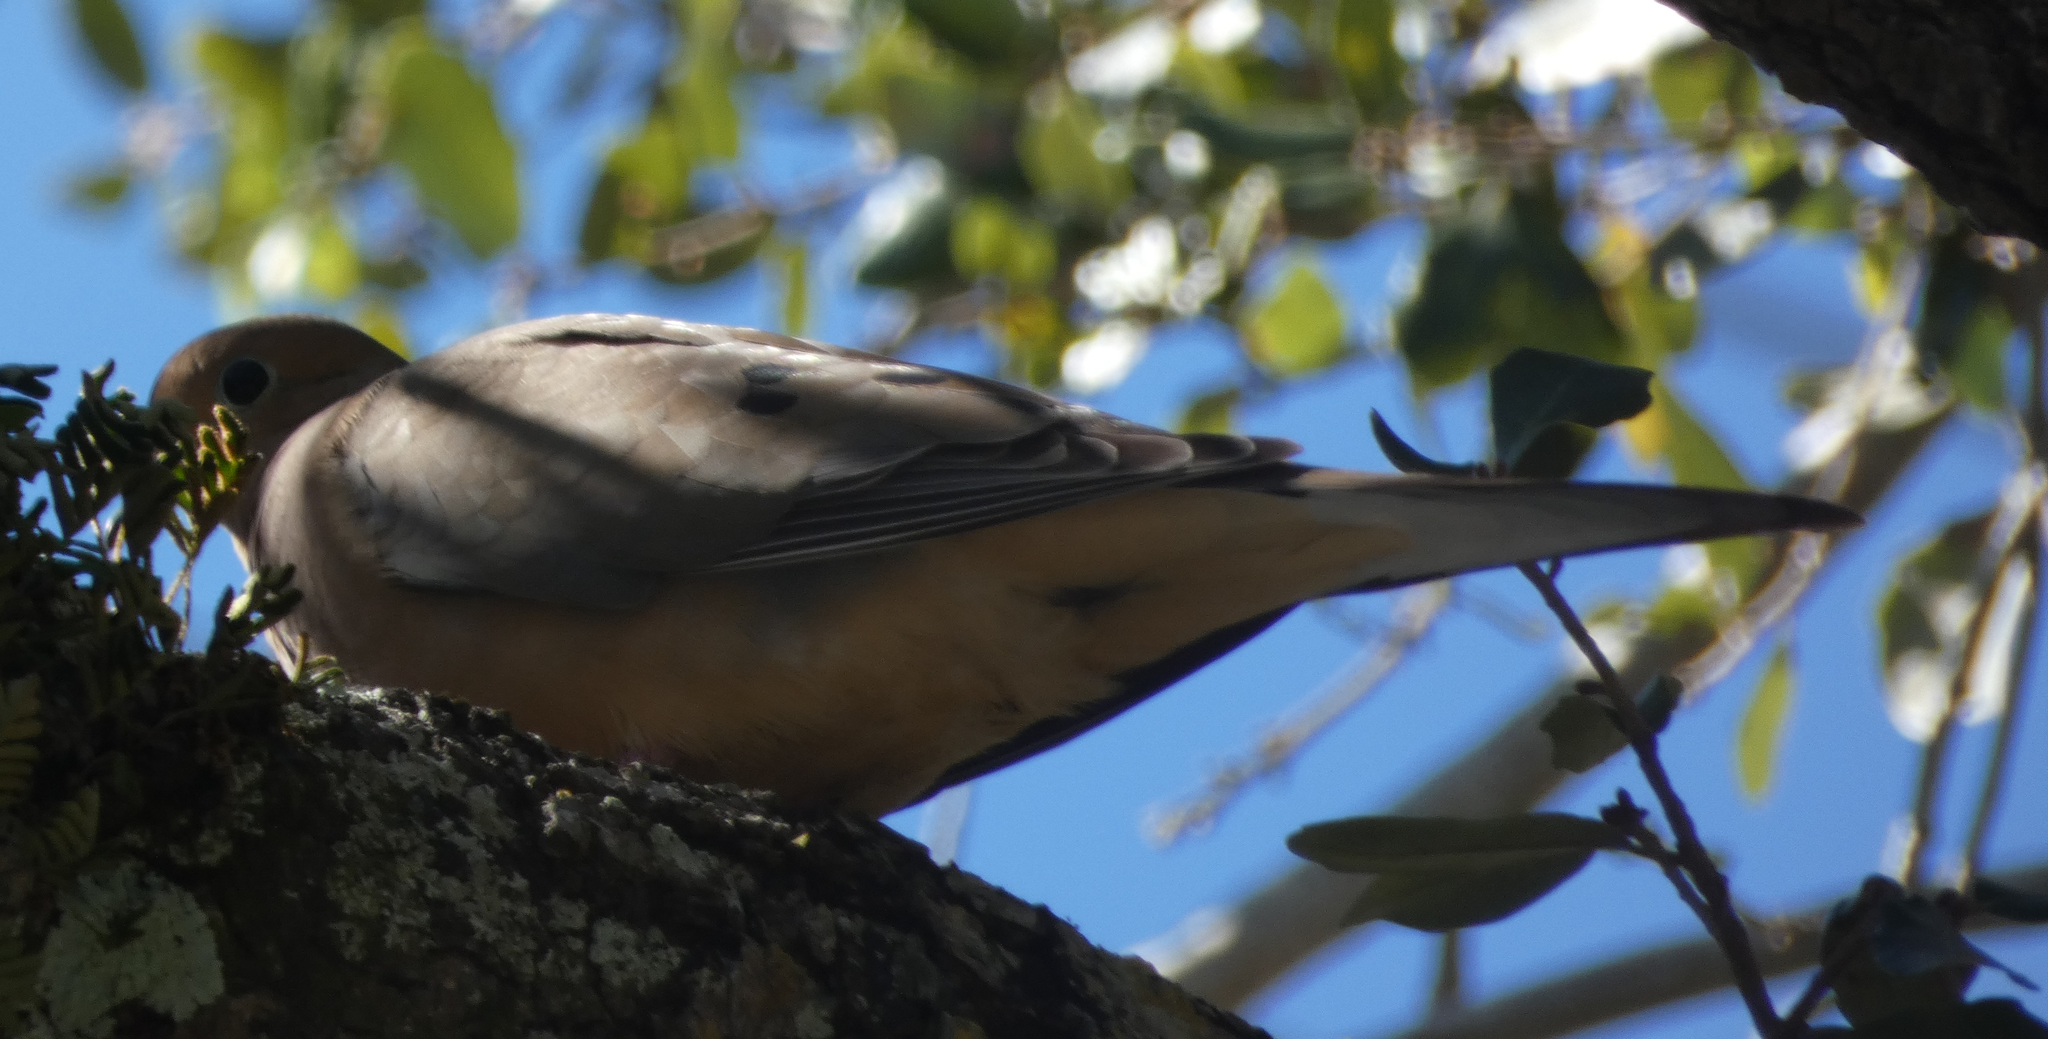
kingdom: Animalia
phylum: Chordata
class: Aves
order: Columbiformes
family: Columbidae
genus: Zenaida
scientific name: Zenaida macroura
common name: Mourning dove
